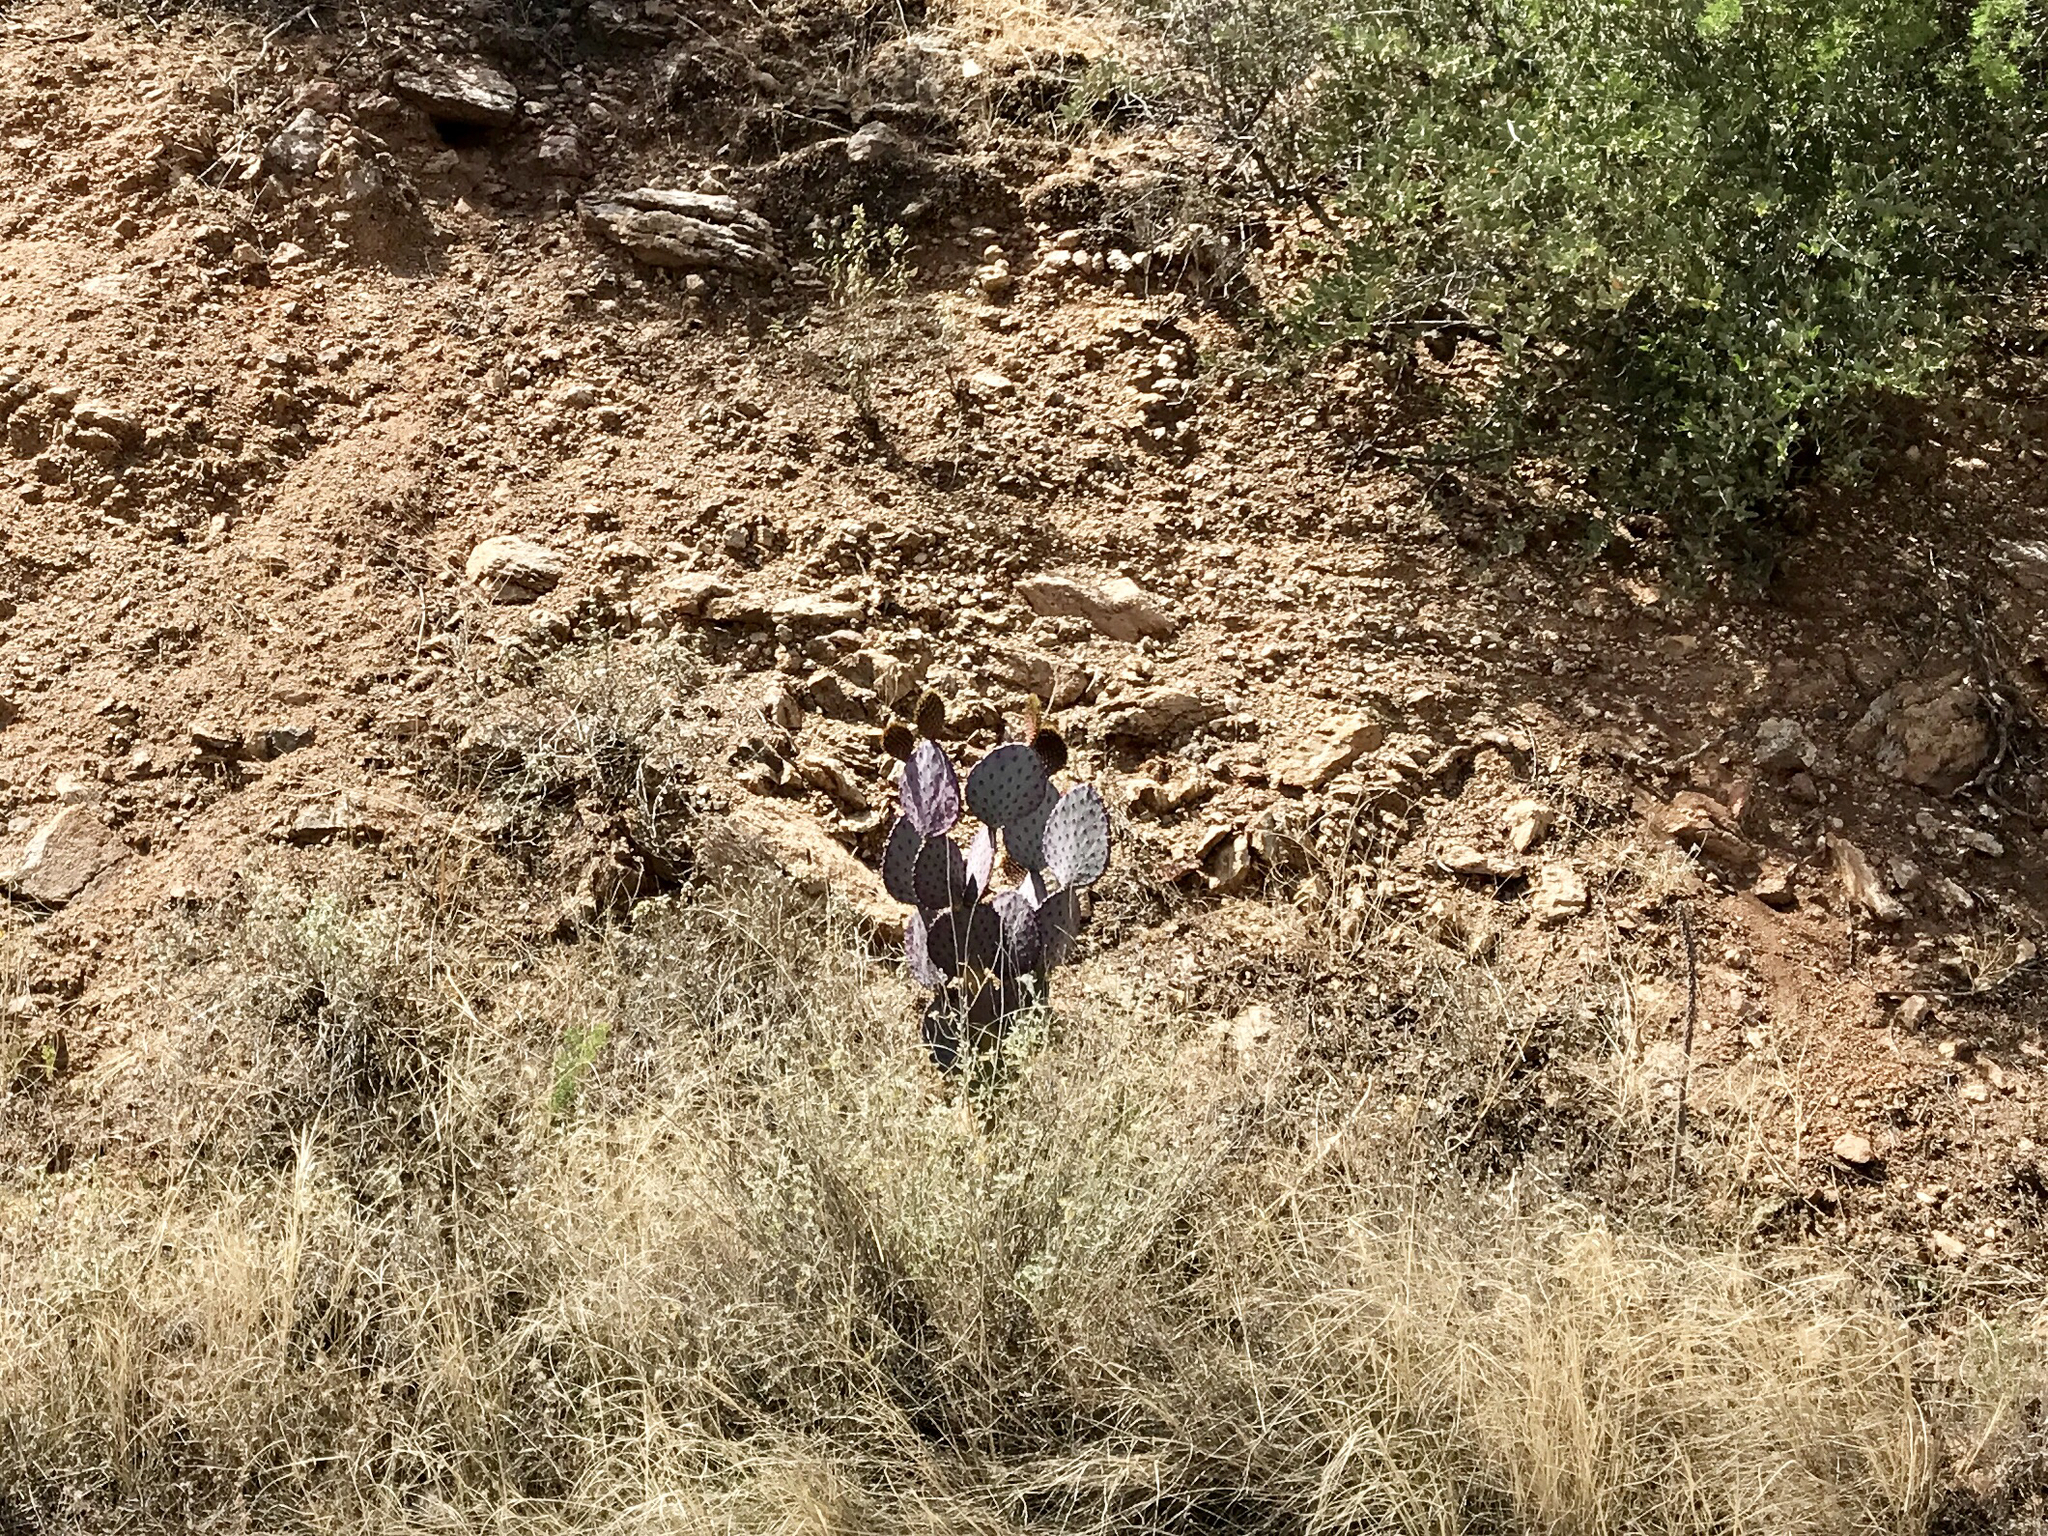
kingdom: Plantae
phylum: Tracheophyta
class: Magnoliopsida
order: Caryophyllales
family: Cactaceae
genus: Opuntia
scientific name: Opuntia gosseliniana
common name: Violet prickly-pear
